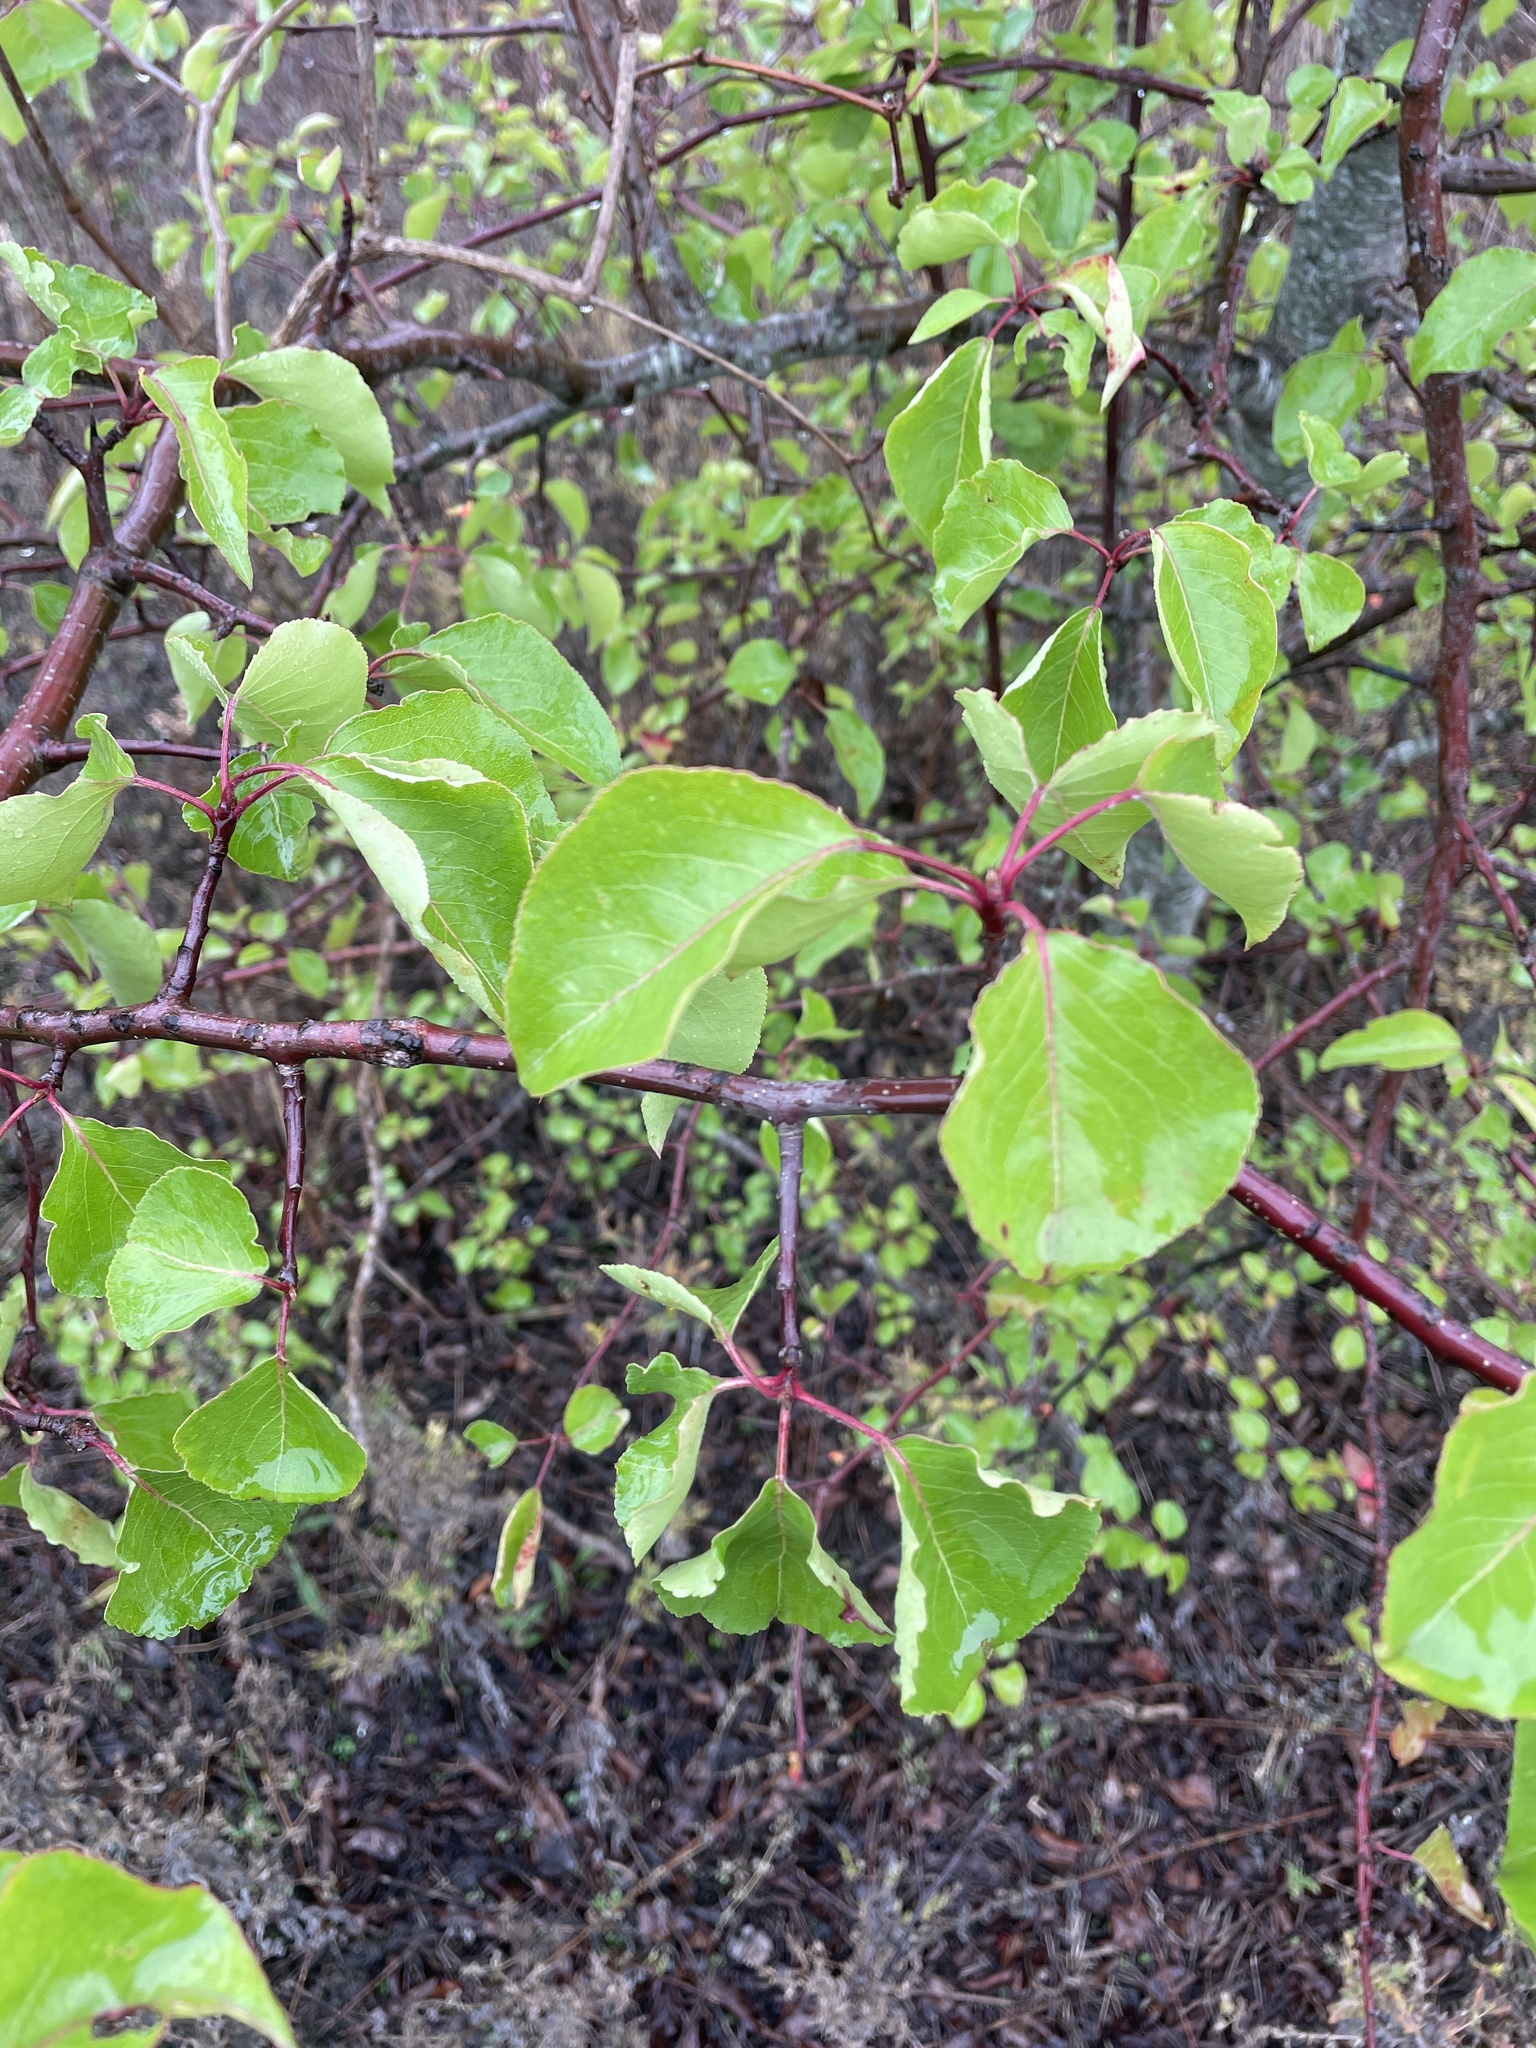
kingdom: Plantae
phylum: Tracheophyta
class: Magnoliopsida
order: Rosales
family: Rosaceae
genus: Pyrus
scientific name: Pyrus calleryana
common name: Callery pear
